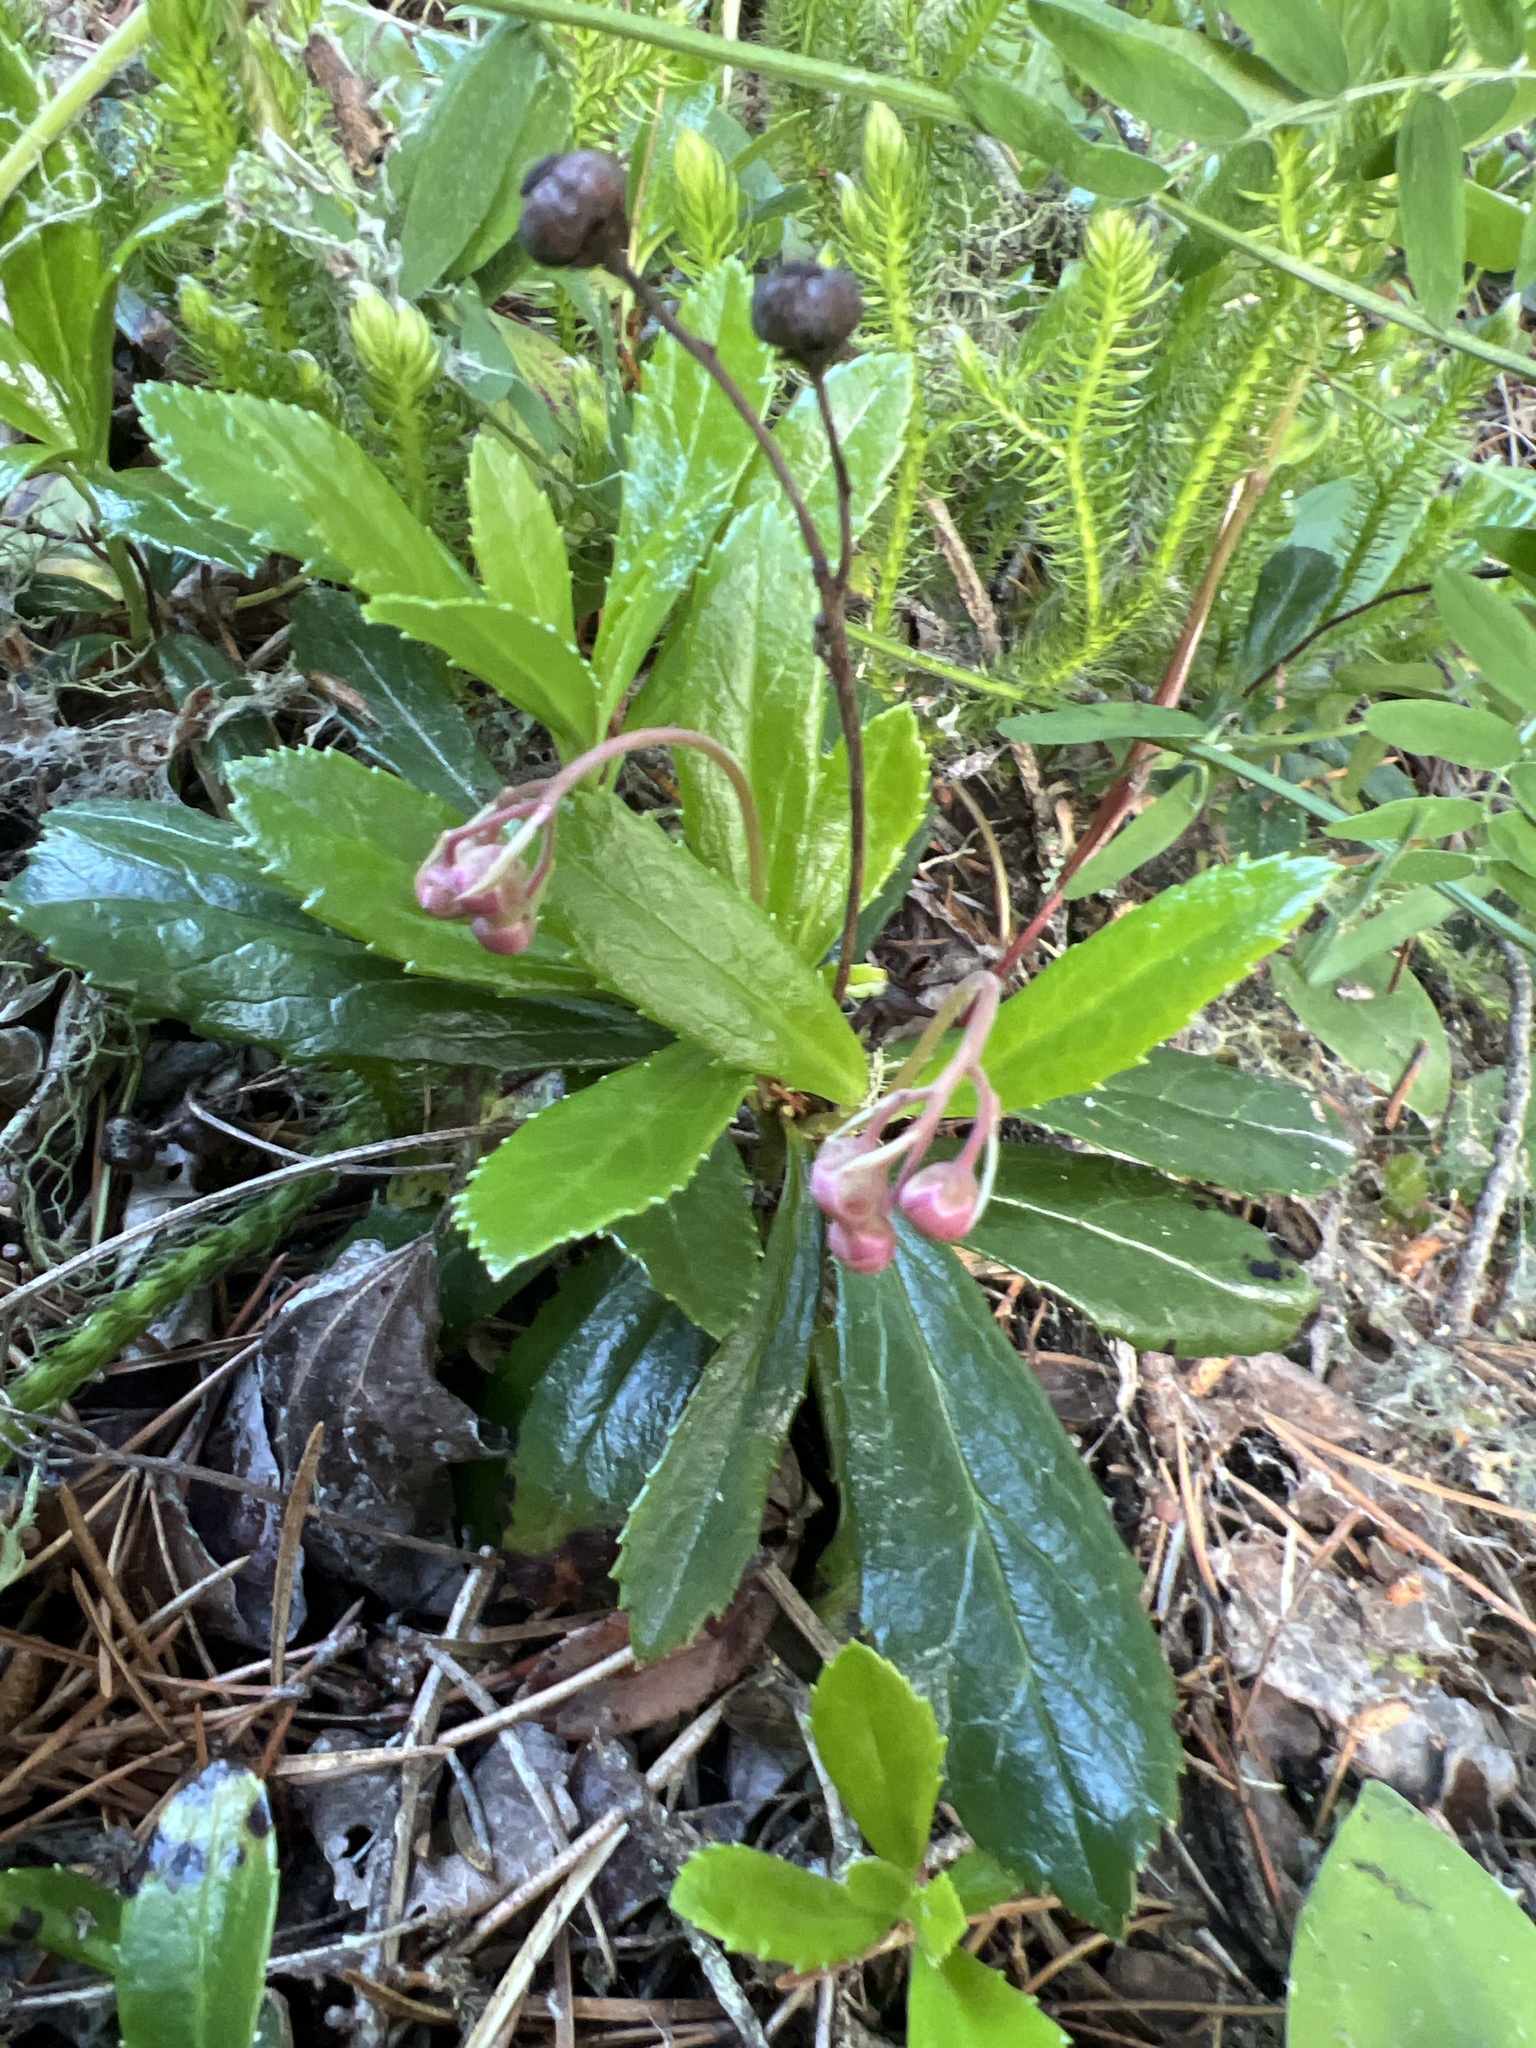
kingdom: Plantae
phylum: Tracheophyta
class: Magnoliopsida
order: Ericales
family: Ericaceae
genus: Chimaphila
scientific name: Chimaphila umbellata
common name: Pipsissewa
